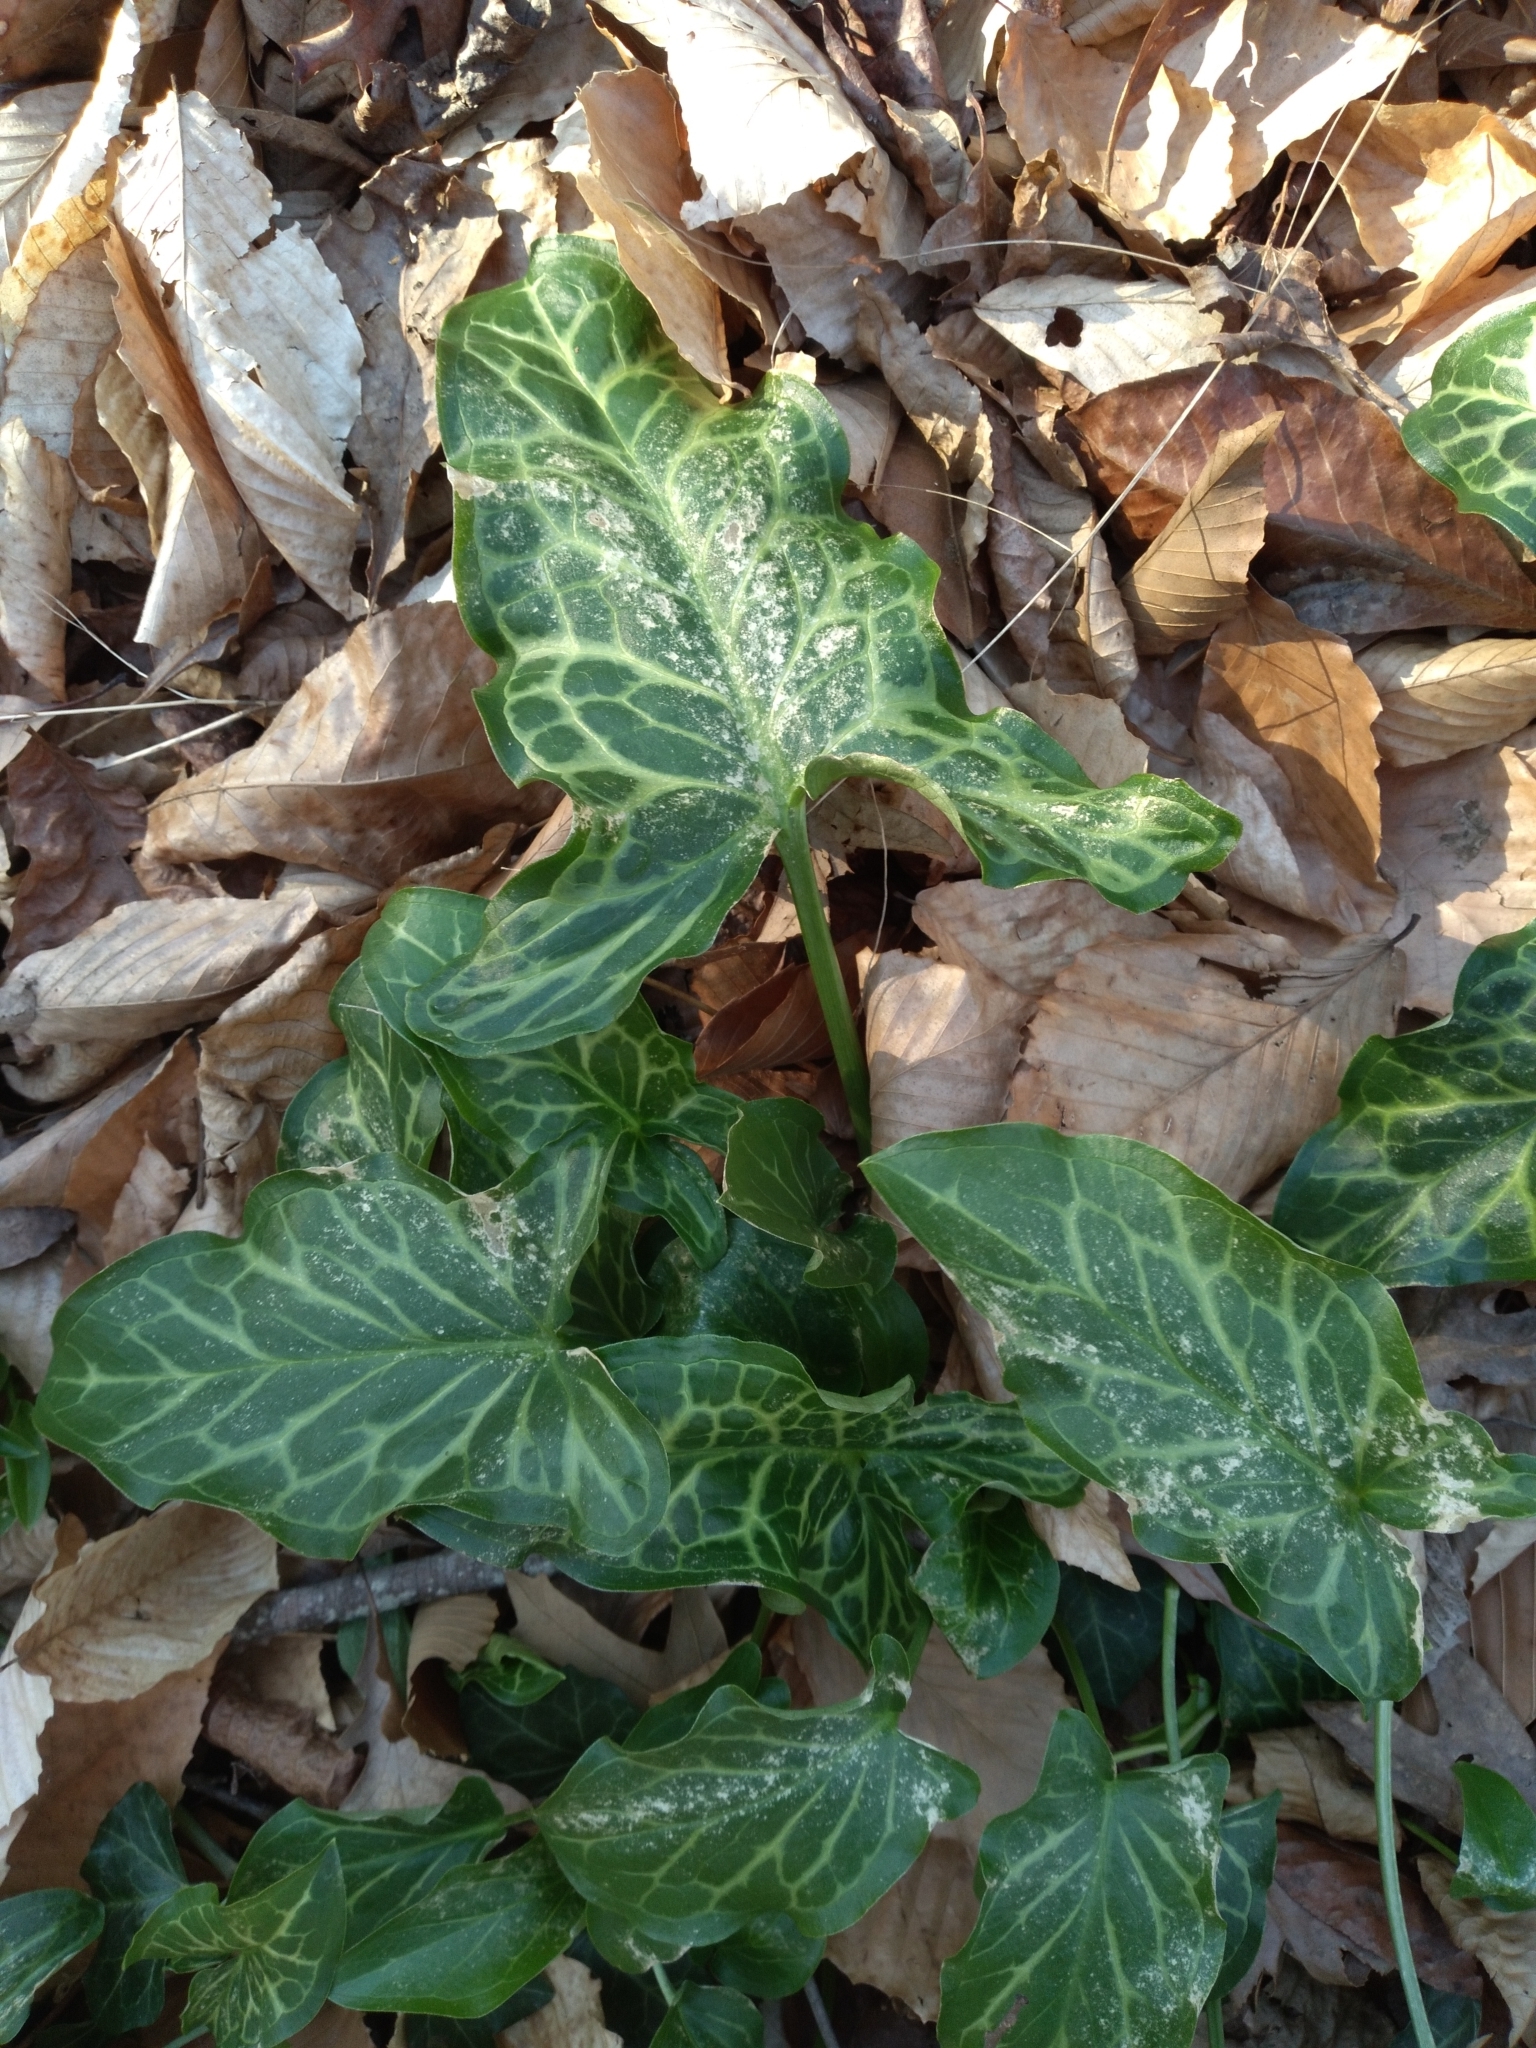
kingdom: Plantae
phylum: Tracheophyta
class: Liliopsida
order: Alismatales
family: Araceae
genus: Arum
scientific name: Arum italicum
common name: Italian lords-and-ladies
